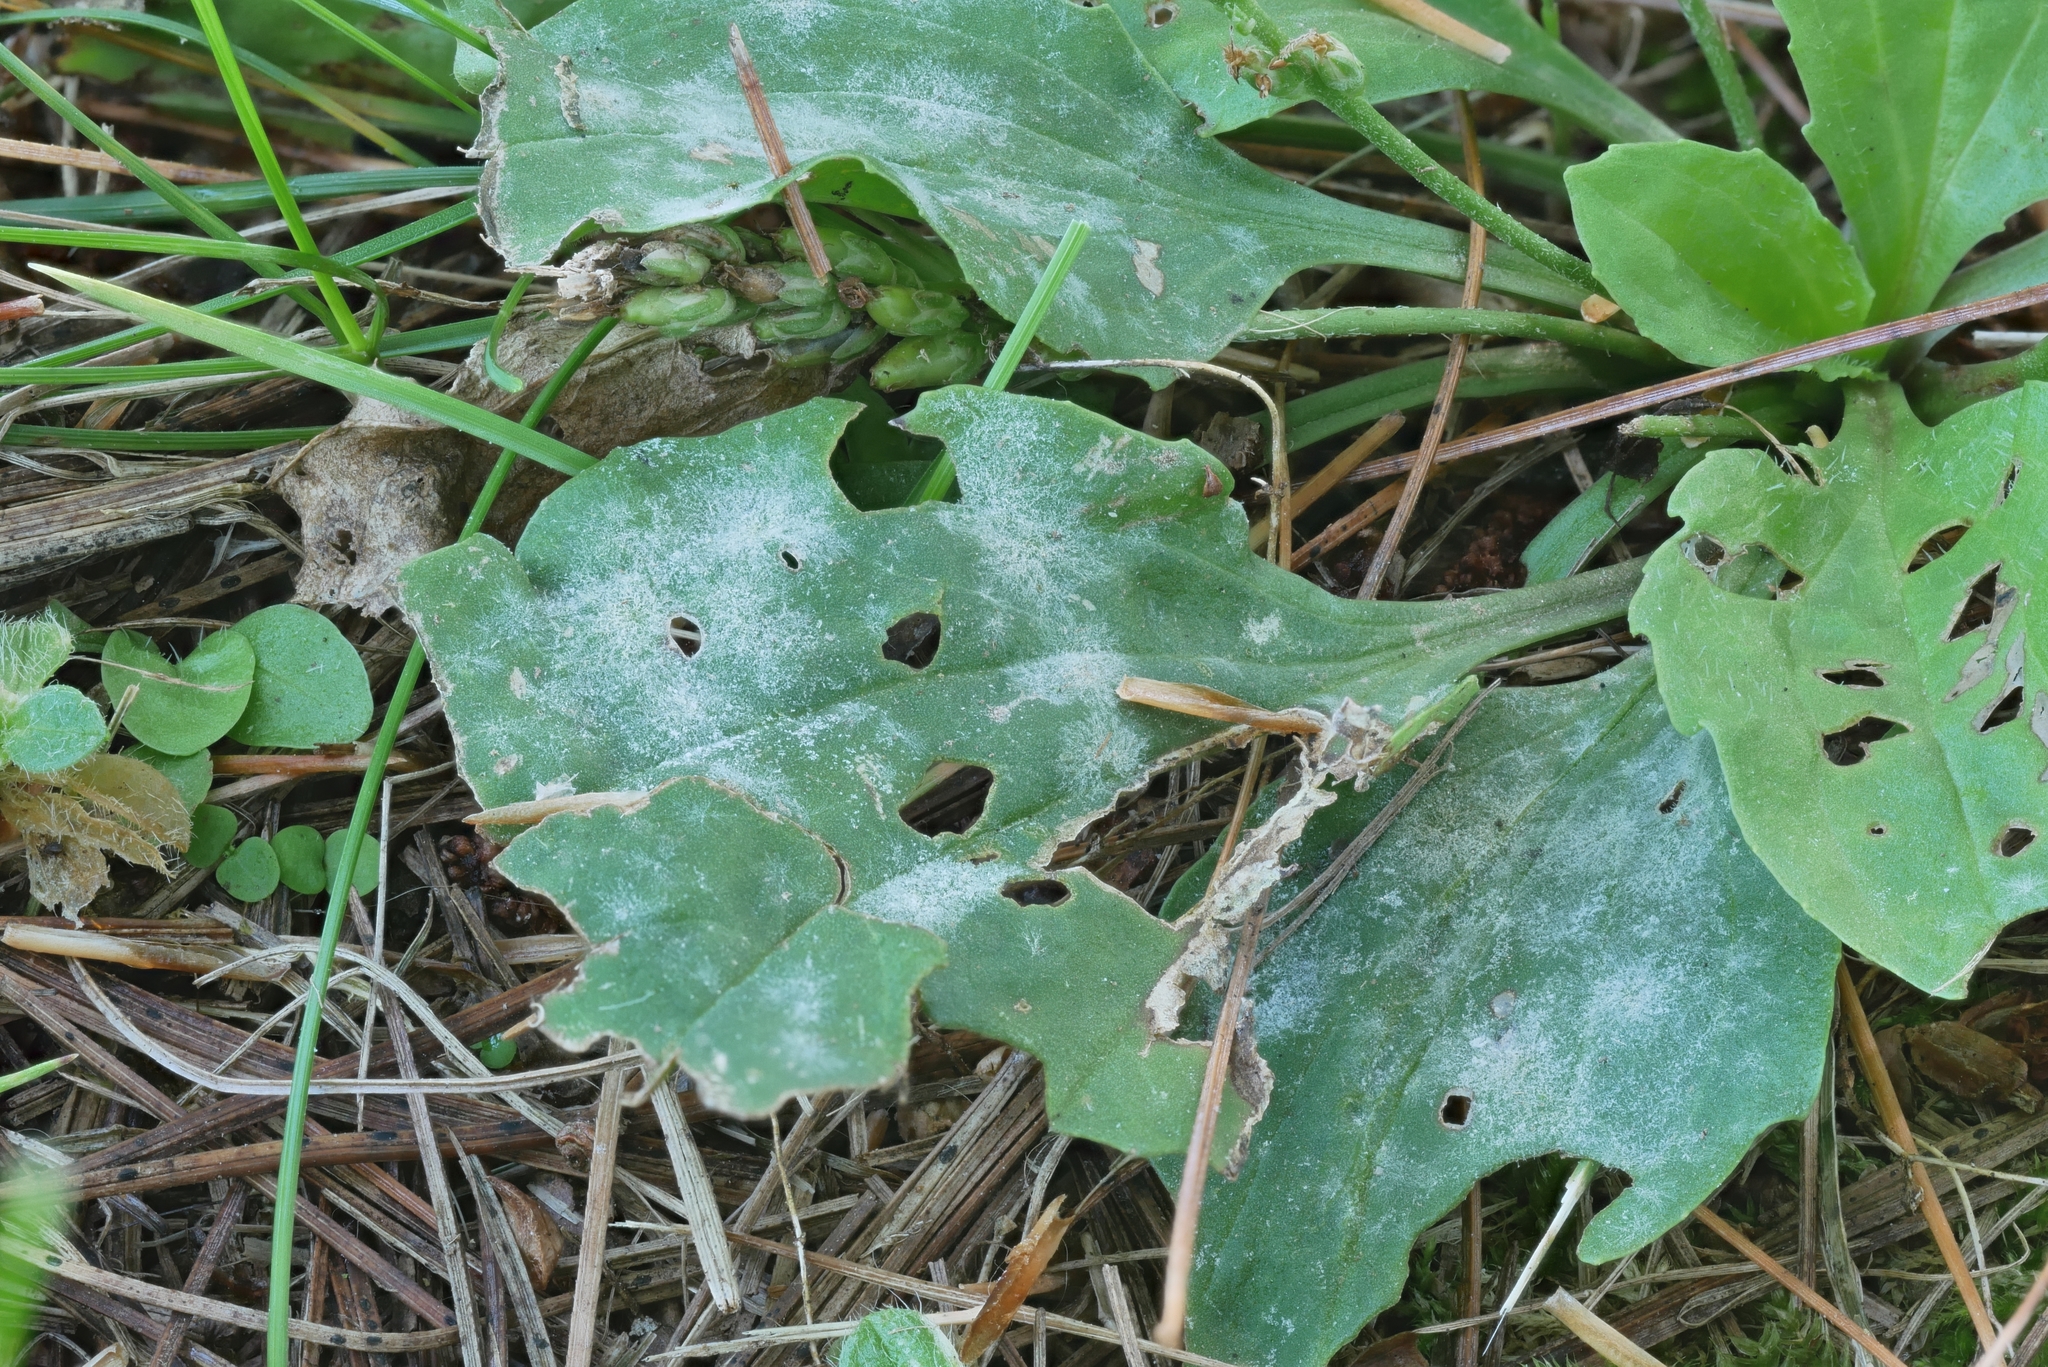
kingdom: Fungi
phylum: Ascomycota
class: Leotiomycetes
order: Helotiales
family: Erysiphaceae
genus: Golovinomyces
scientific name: Golovinomyces sordidus
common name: Plantain mildew
